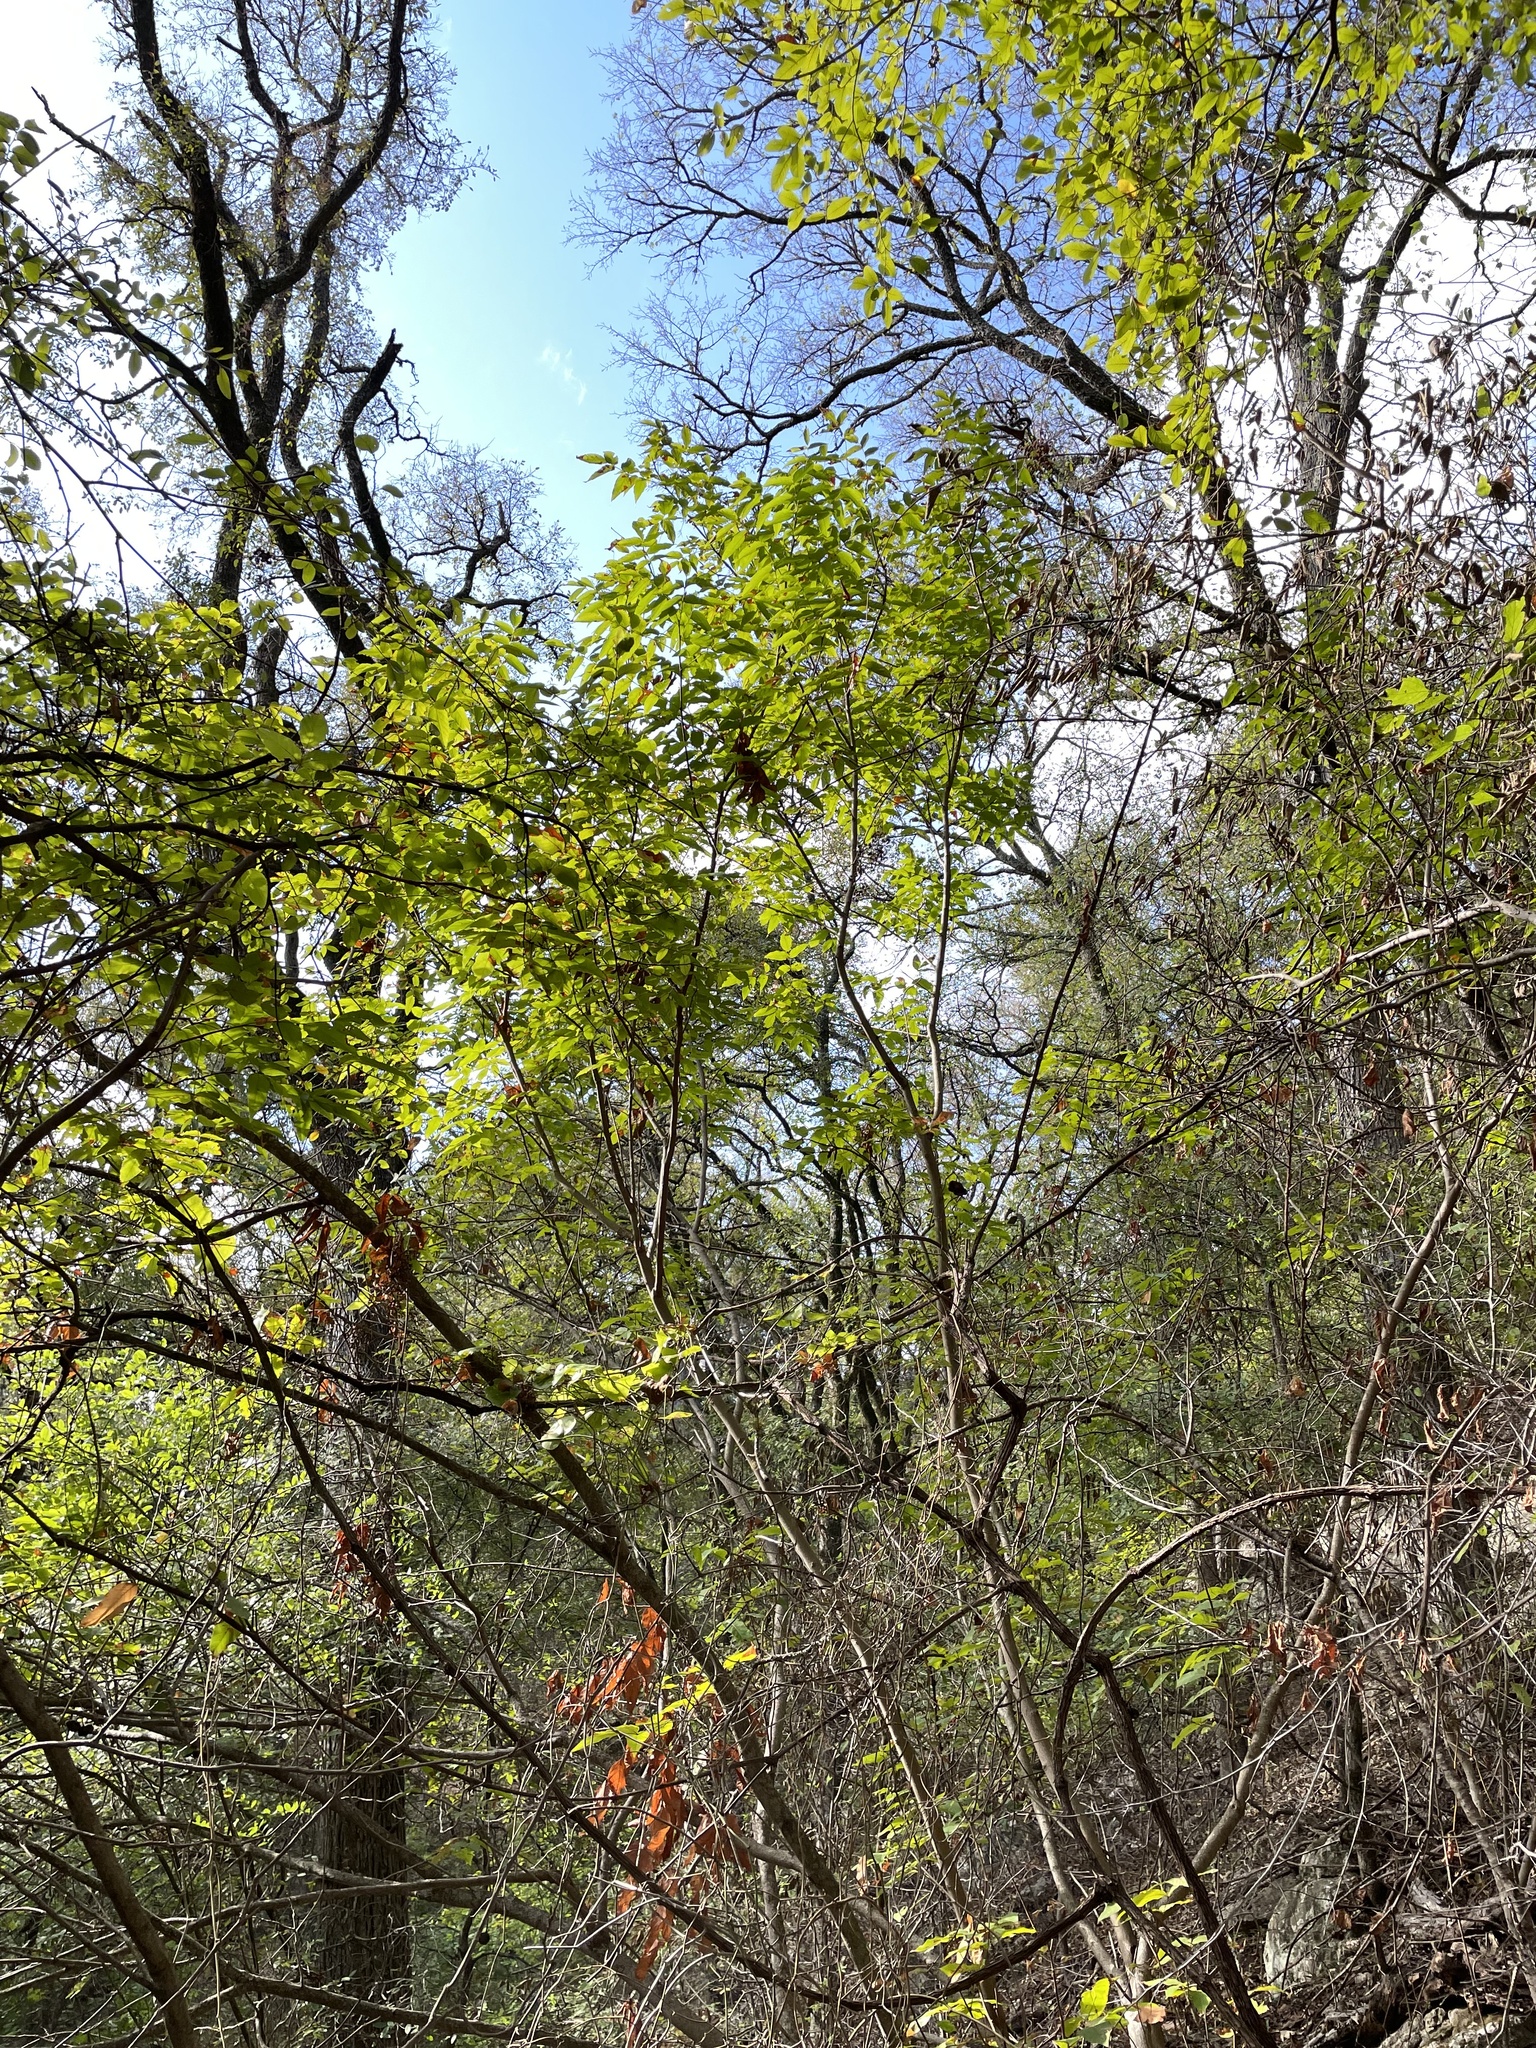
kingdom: Plantae
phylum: Tracheophyta
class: Magnoliopsida
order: Sapindales
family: Sapindaceae
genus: Ungnadia
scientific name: Ungnadia speciosa
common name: Texas-buckeye
